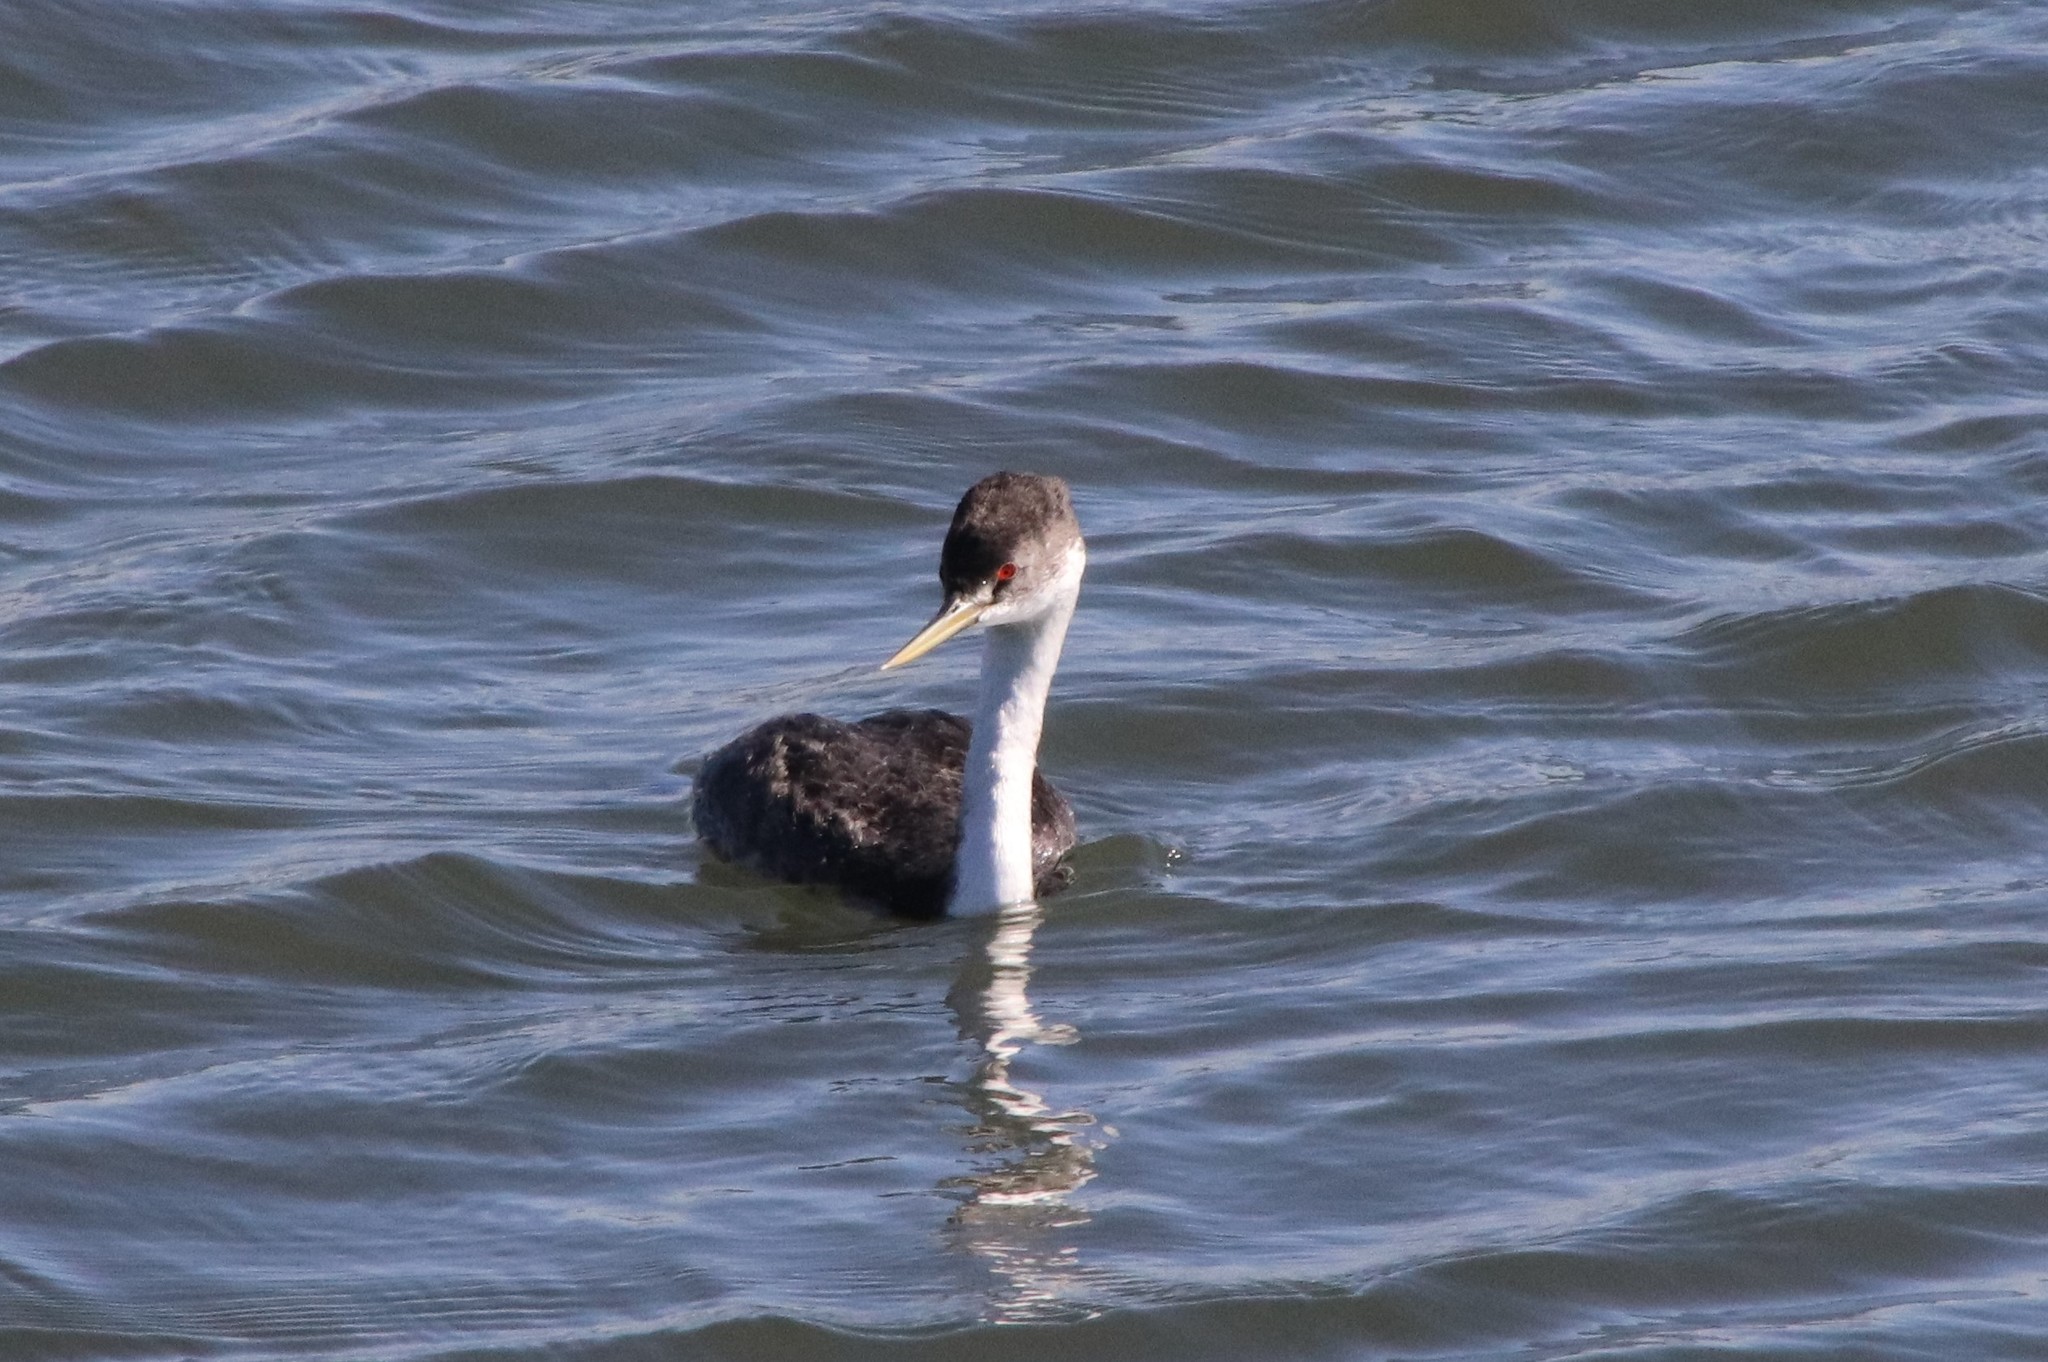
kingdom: Animalia
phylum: Chordata
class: Aves
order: Podicipediformes
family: Podicipedidae
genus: Aechmophorus
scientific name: Aechmophorus occidentalis
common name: Western grebe
